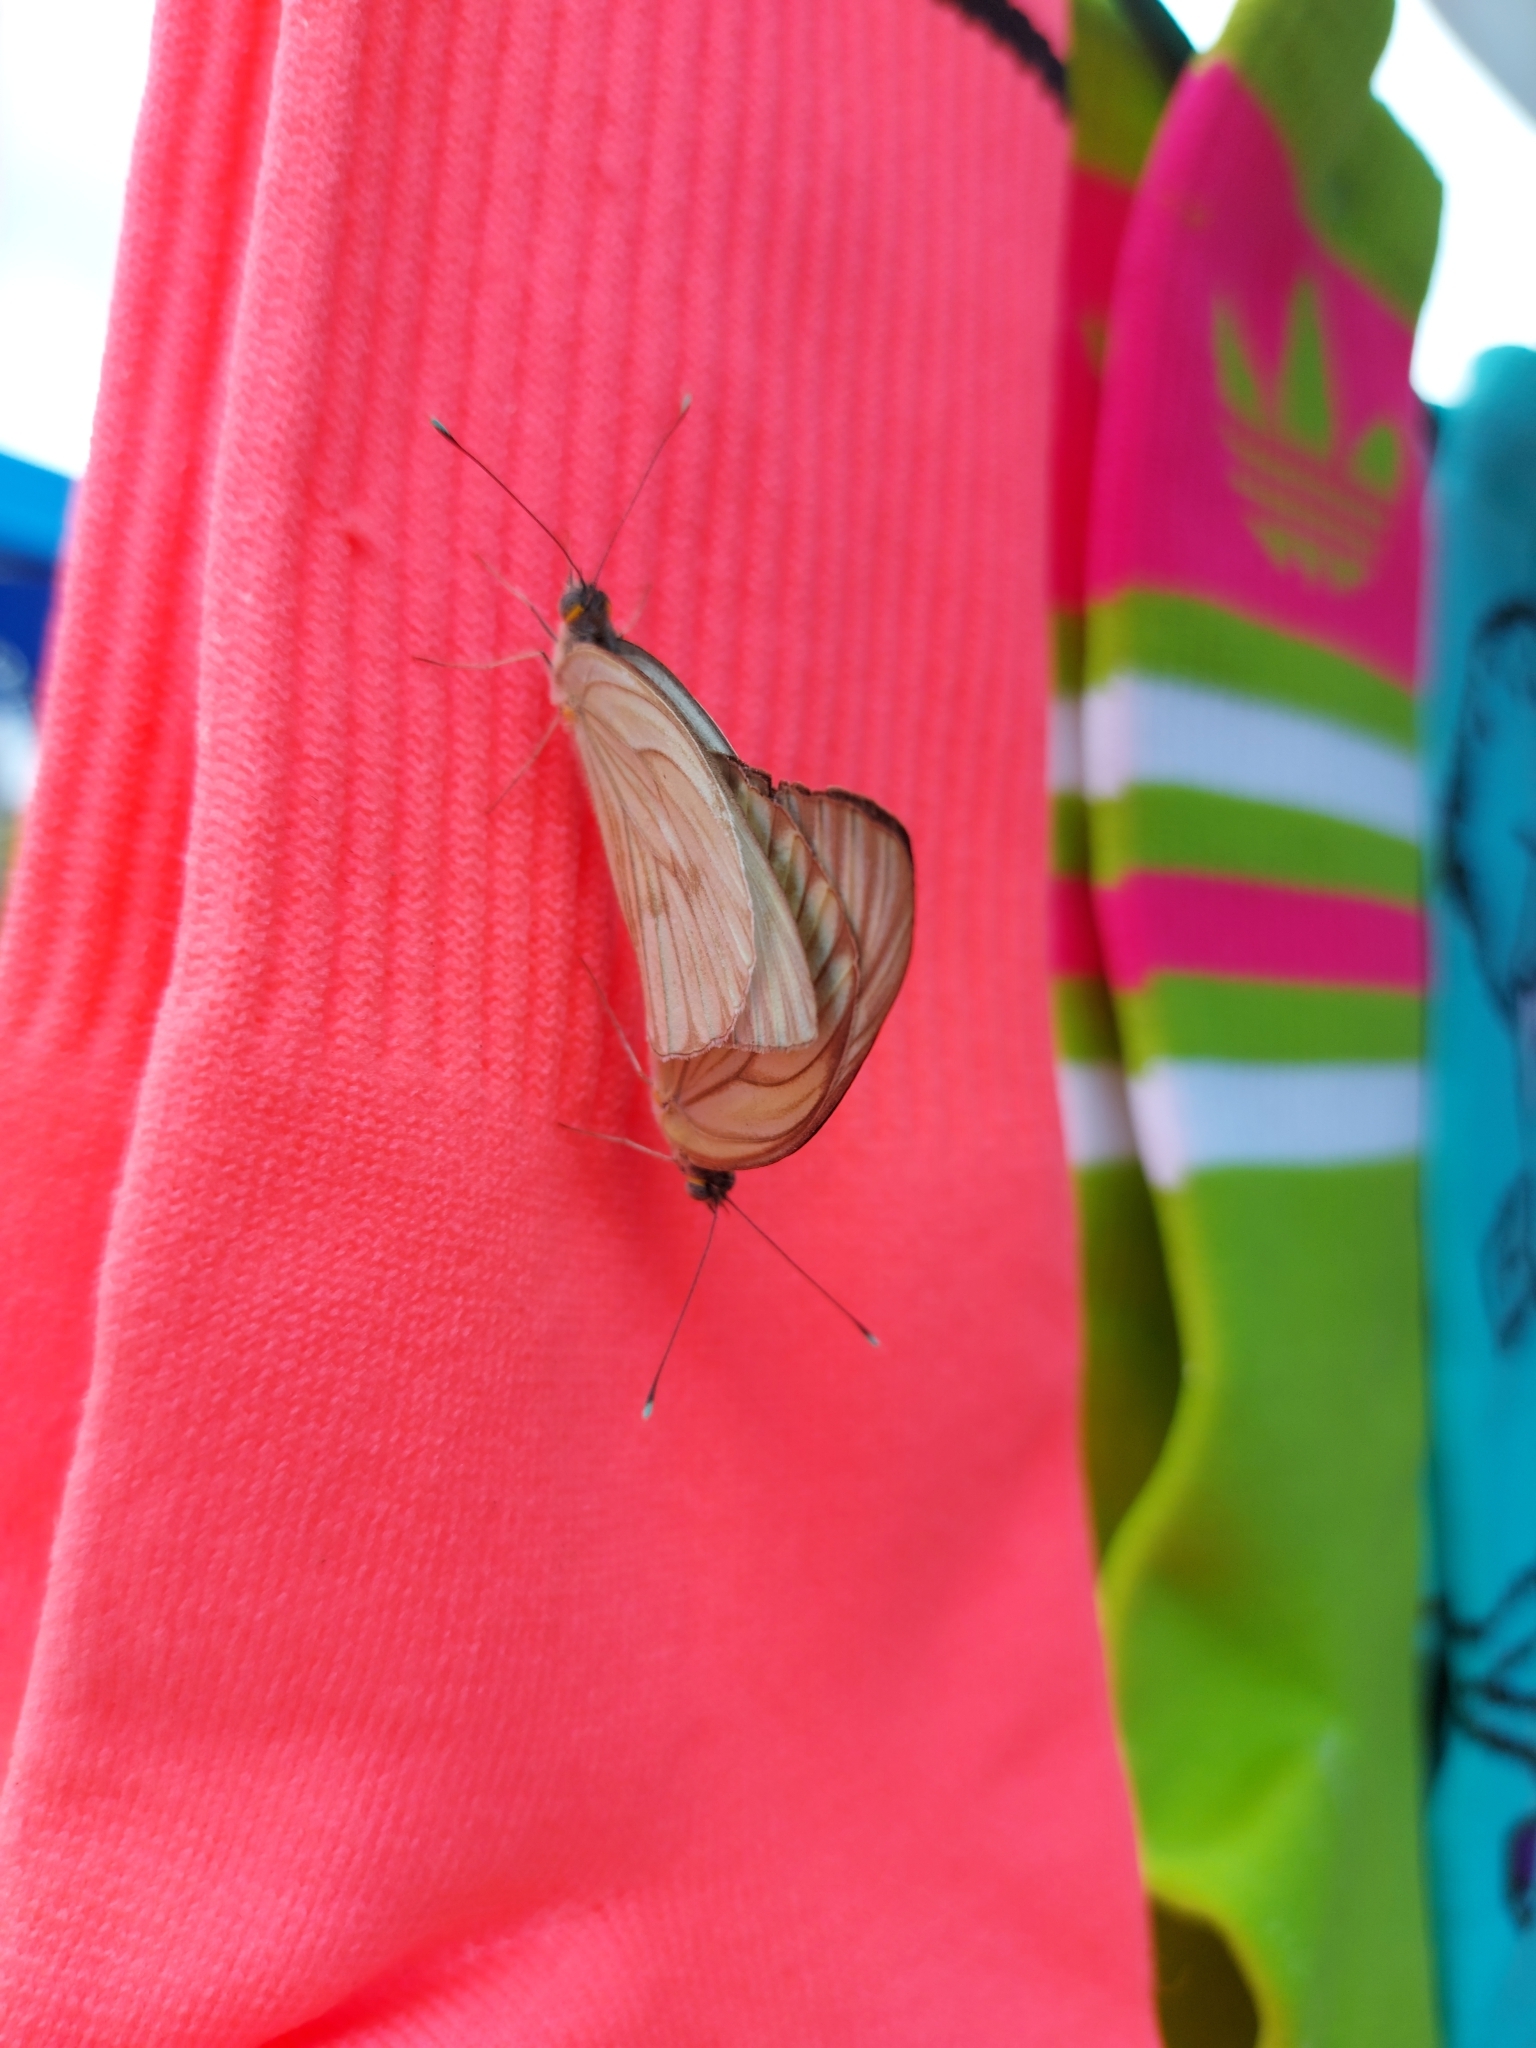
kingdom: Animalia
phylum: Arthropoda
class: Insecta
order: Lepidoptera
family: Pieridae
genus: Ascia
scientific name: Ascia monuste
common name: Great southern white
